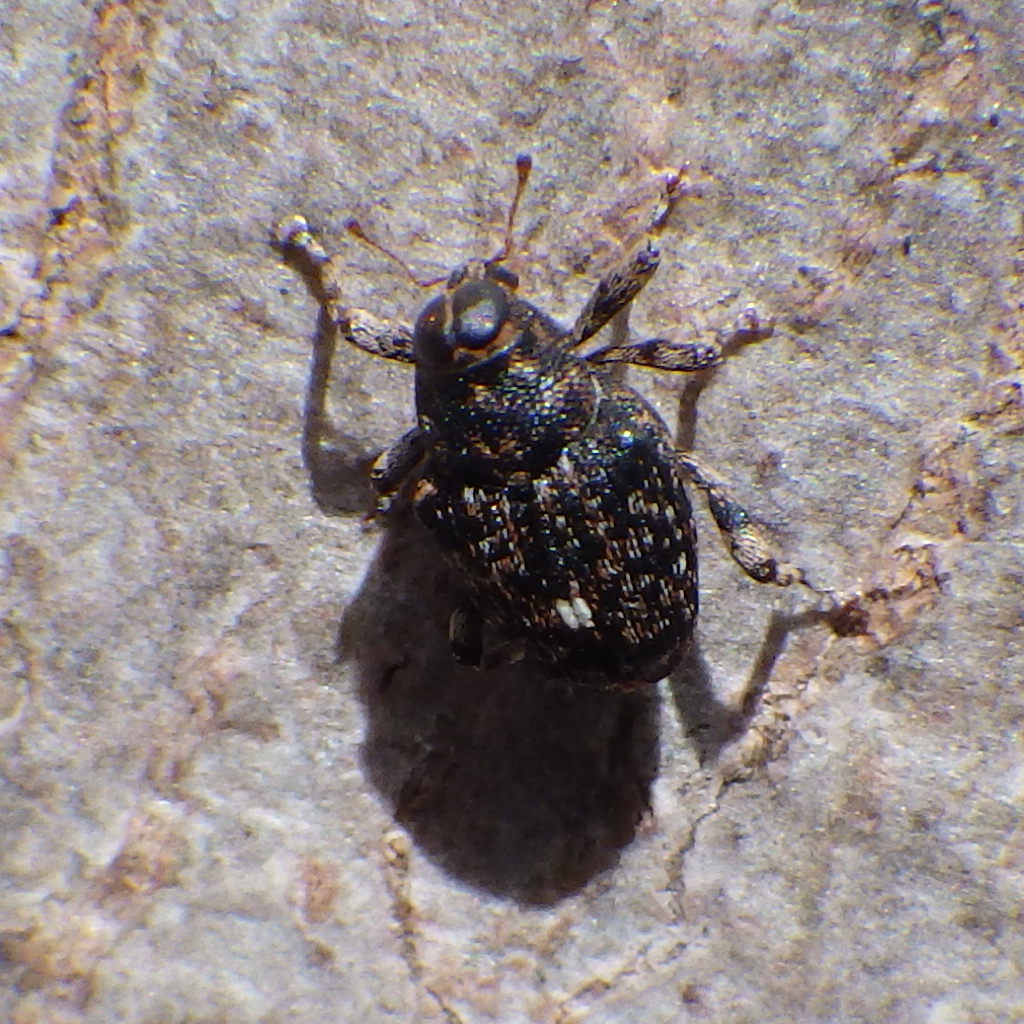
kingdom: Animalia
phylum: Arthropoda
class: Insecta
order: Coleoptera
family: Curculionidae
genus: Lechriops
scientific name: Lechriops oculatus
